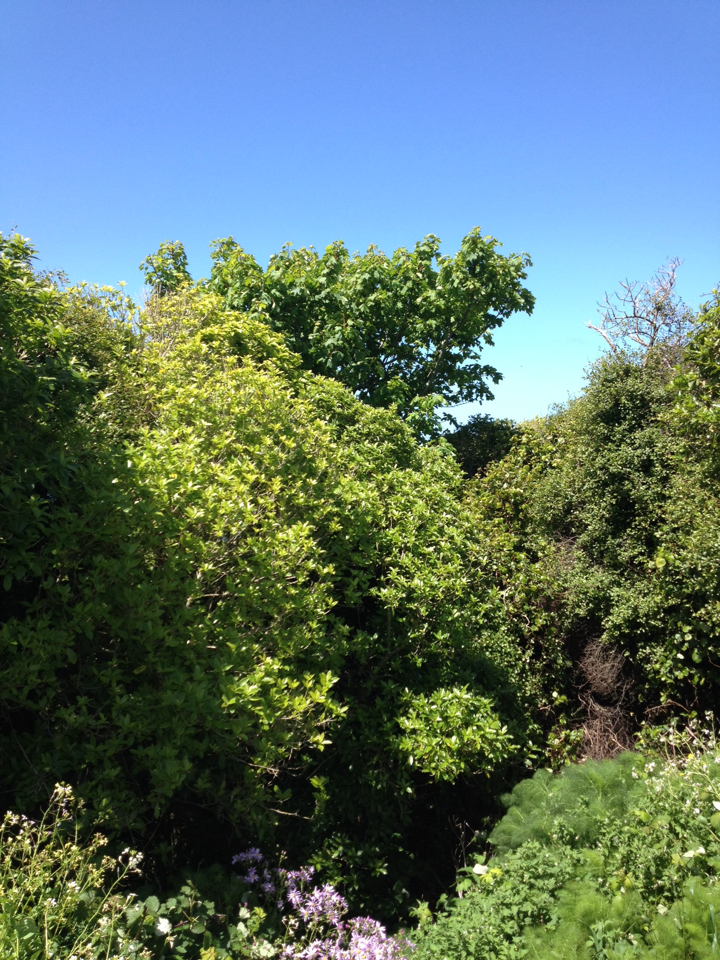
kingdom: Plantae
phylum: Tracheophyta
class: Magnoliopsida
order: Sapindales
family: Sapindaceae
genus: Acer
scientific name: Acer pseudoplatanus
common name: Sycamore
